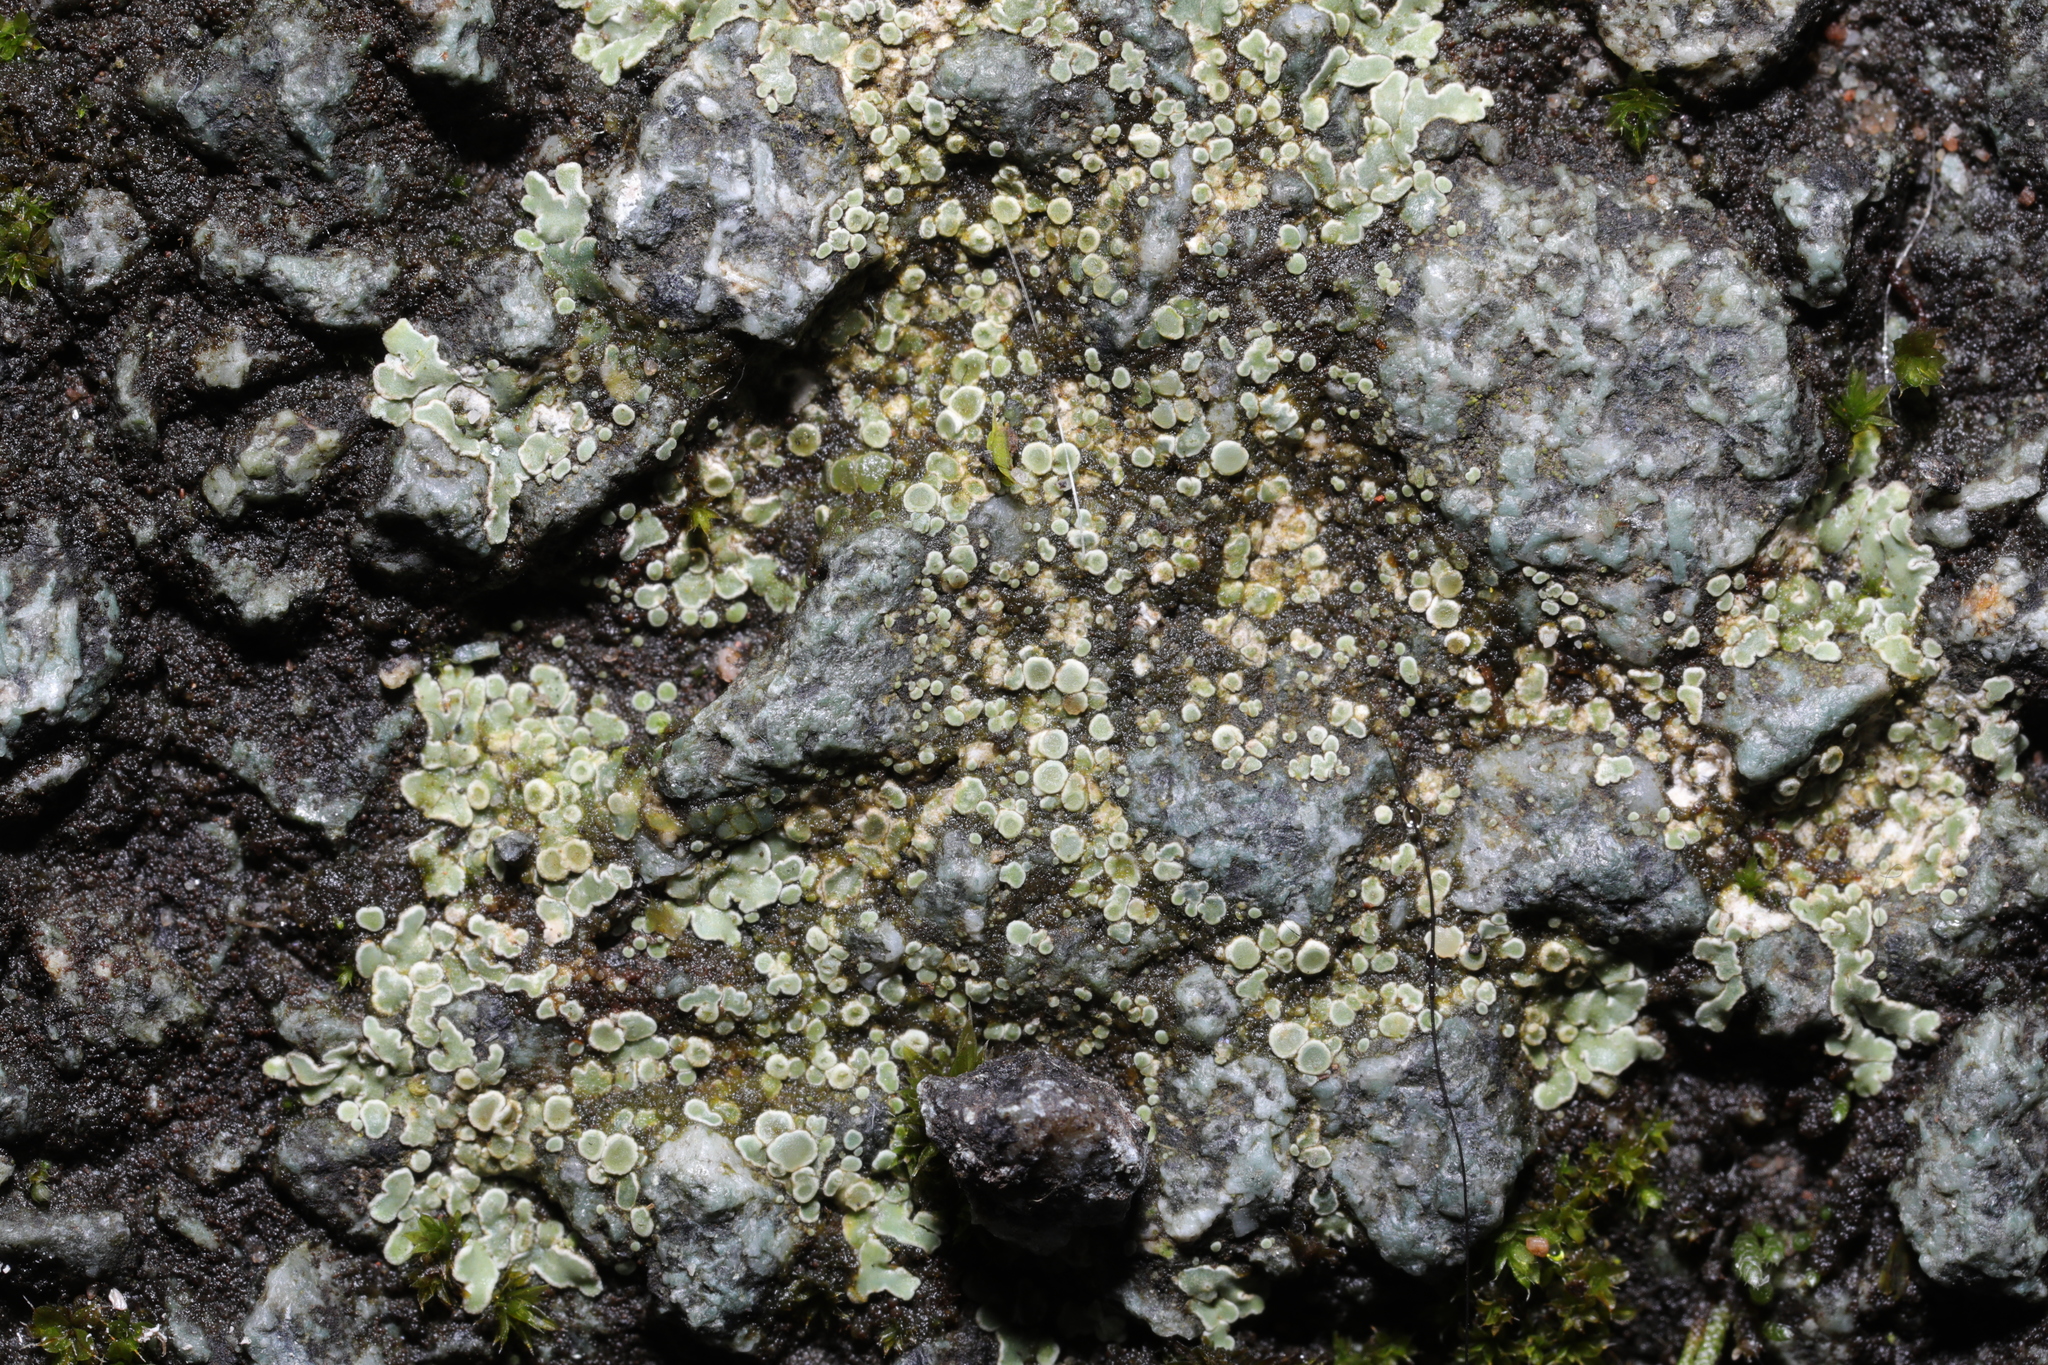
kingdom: Fungi
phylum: Ascomycota
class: Lecanoromycetes
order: Lecanorales
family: Lecanoraceae
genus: Protoparmeliopsis
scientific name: Protoparmeliopsis muralis
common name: Stonewall rim lichen
